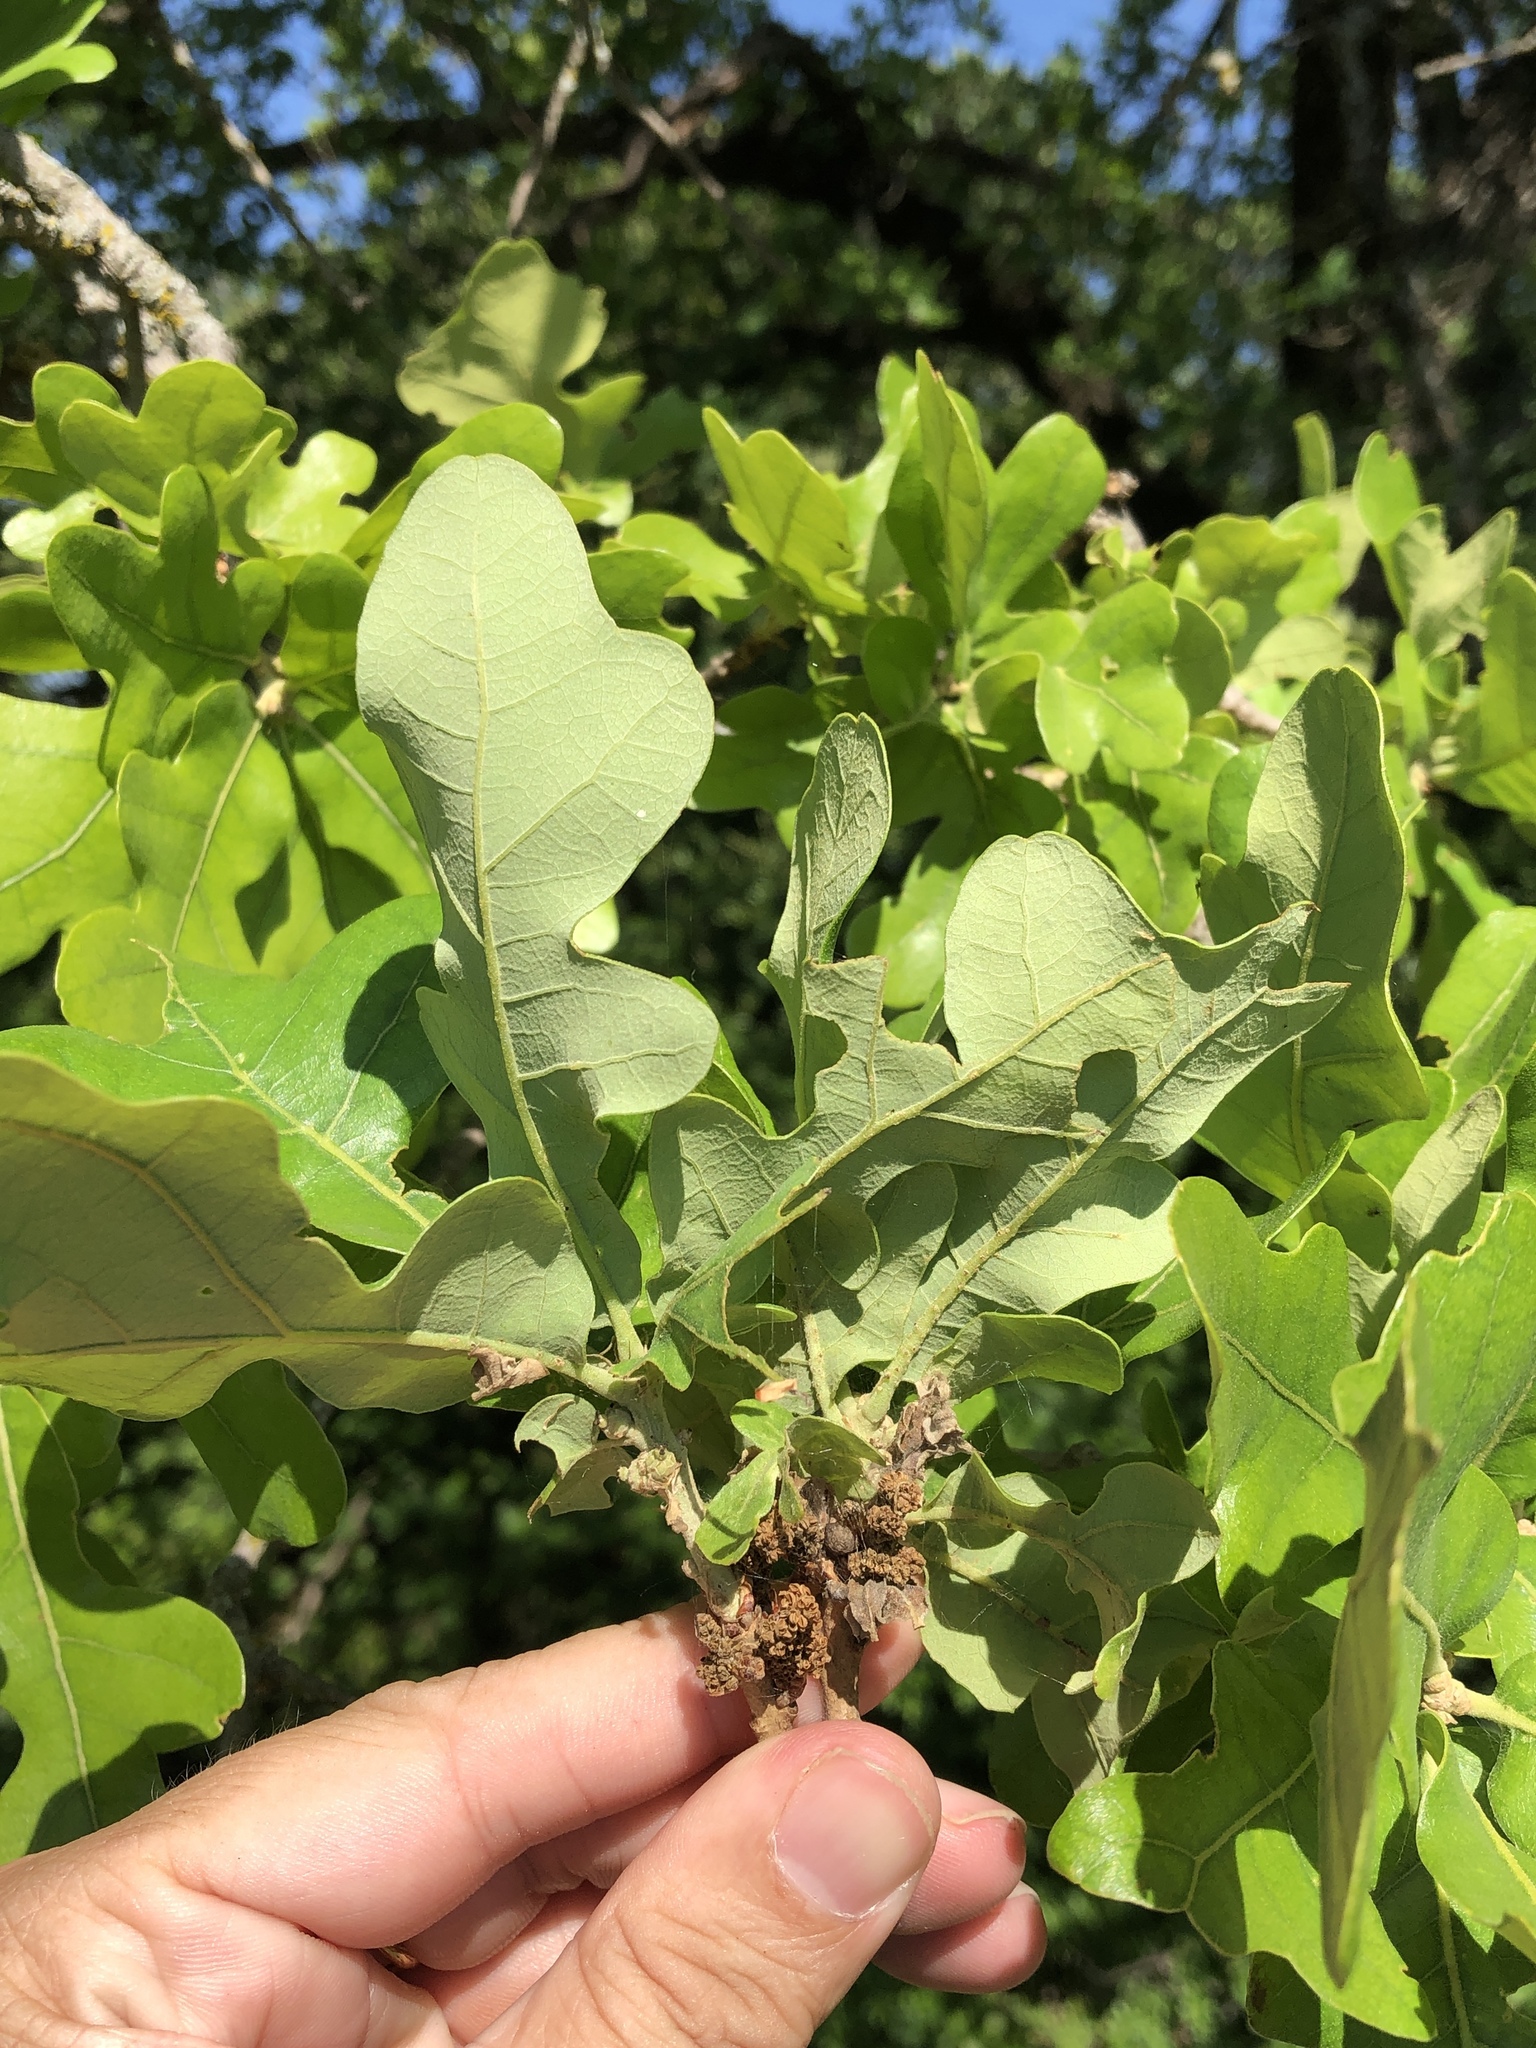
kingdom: Plantae
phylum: Tracheophyta
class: Magnoliopsida
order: Fagales
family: Fagaceae
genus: Quercus
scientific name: Quercus stellata
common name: Post oak
